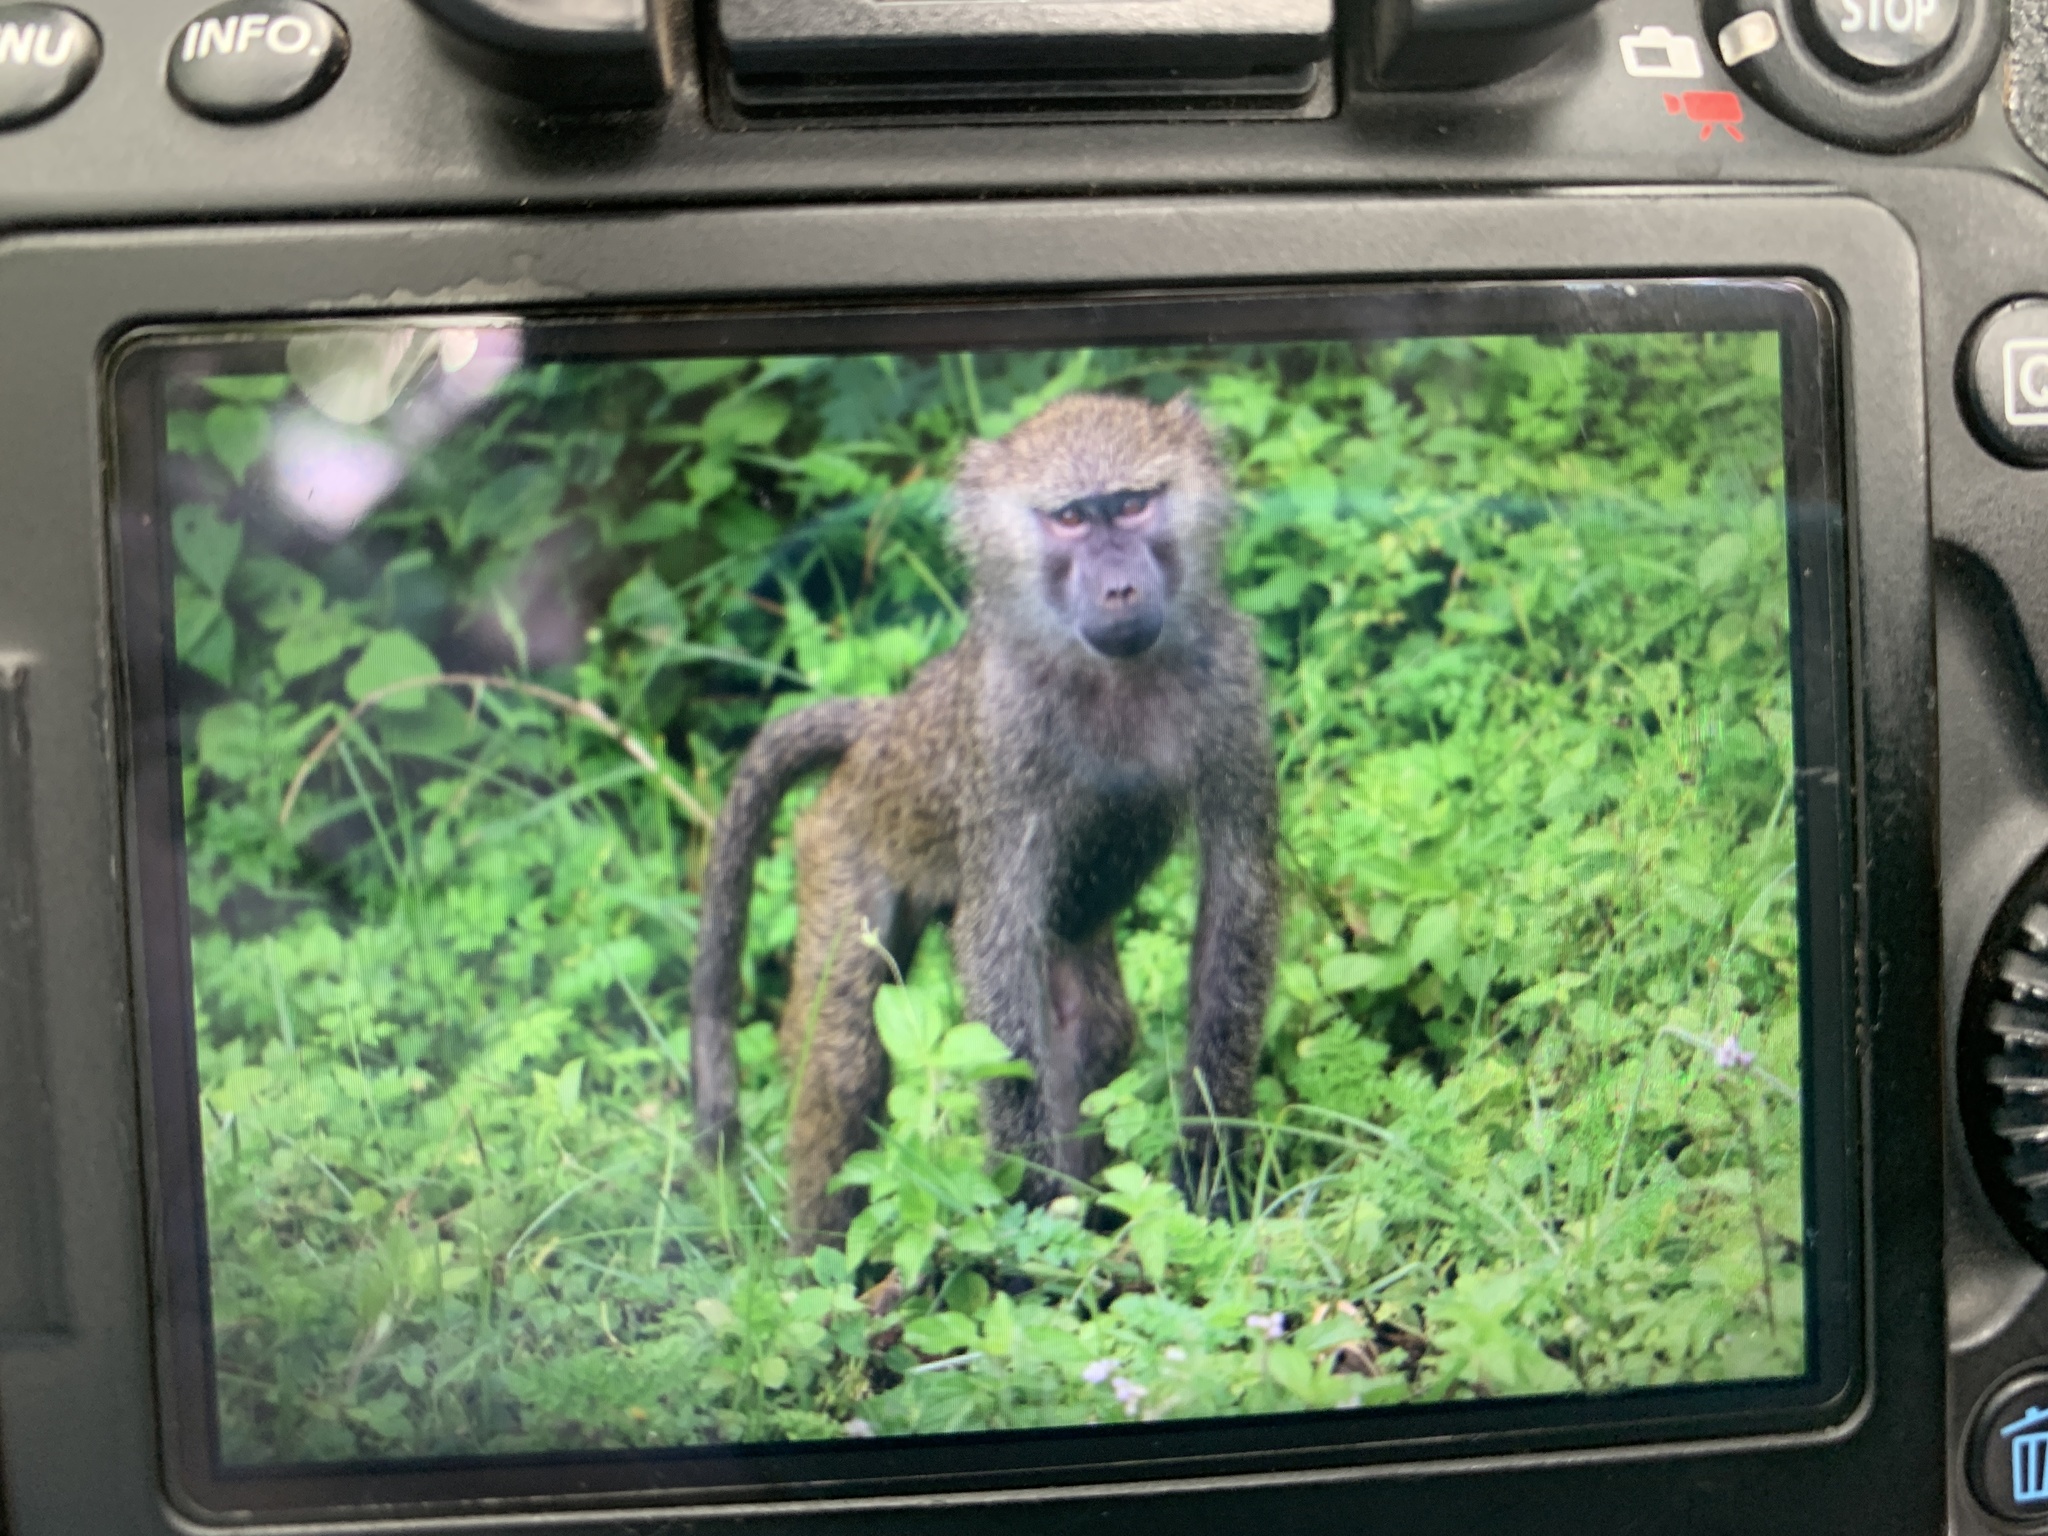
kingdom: Animalia
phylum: Chordata
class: Mammalia
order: Primates
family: Cercopithecidae
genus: Papio
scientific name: Papio anubis
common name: Olive baboon
